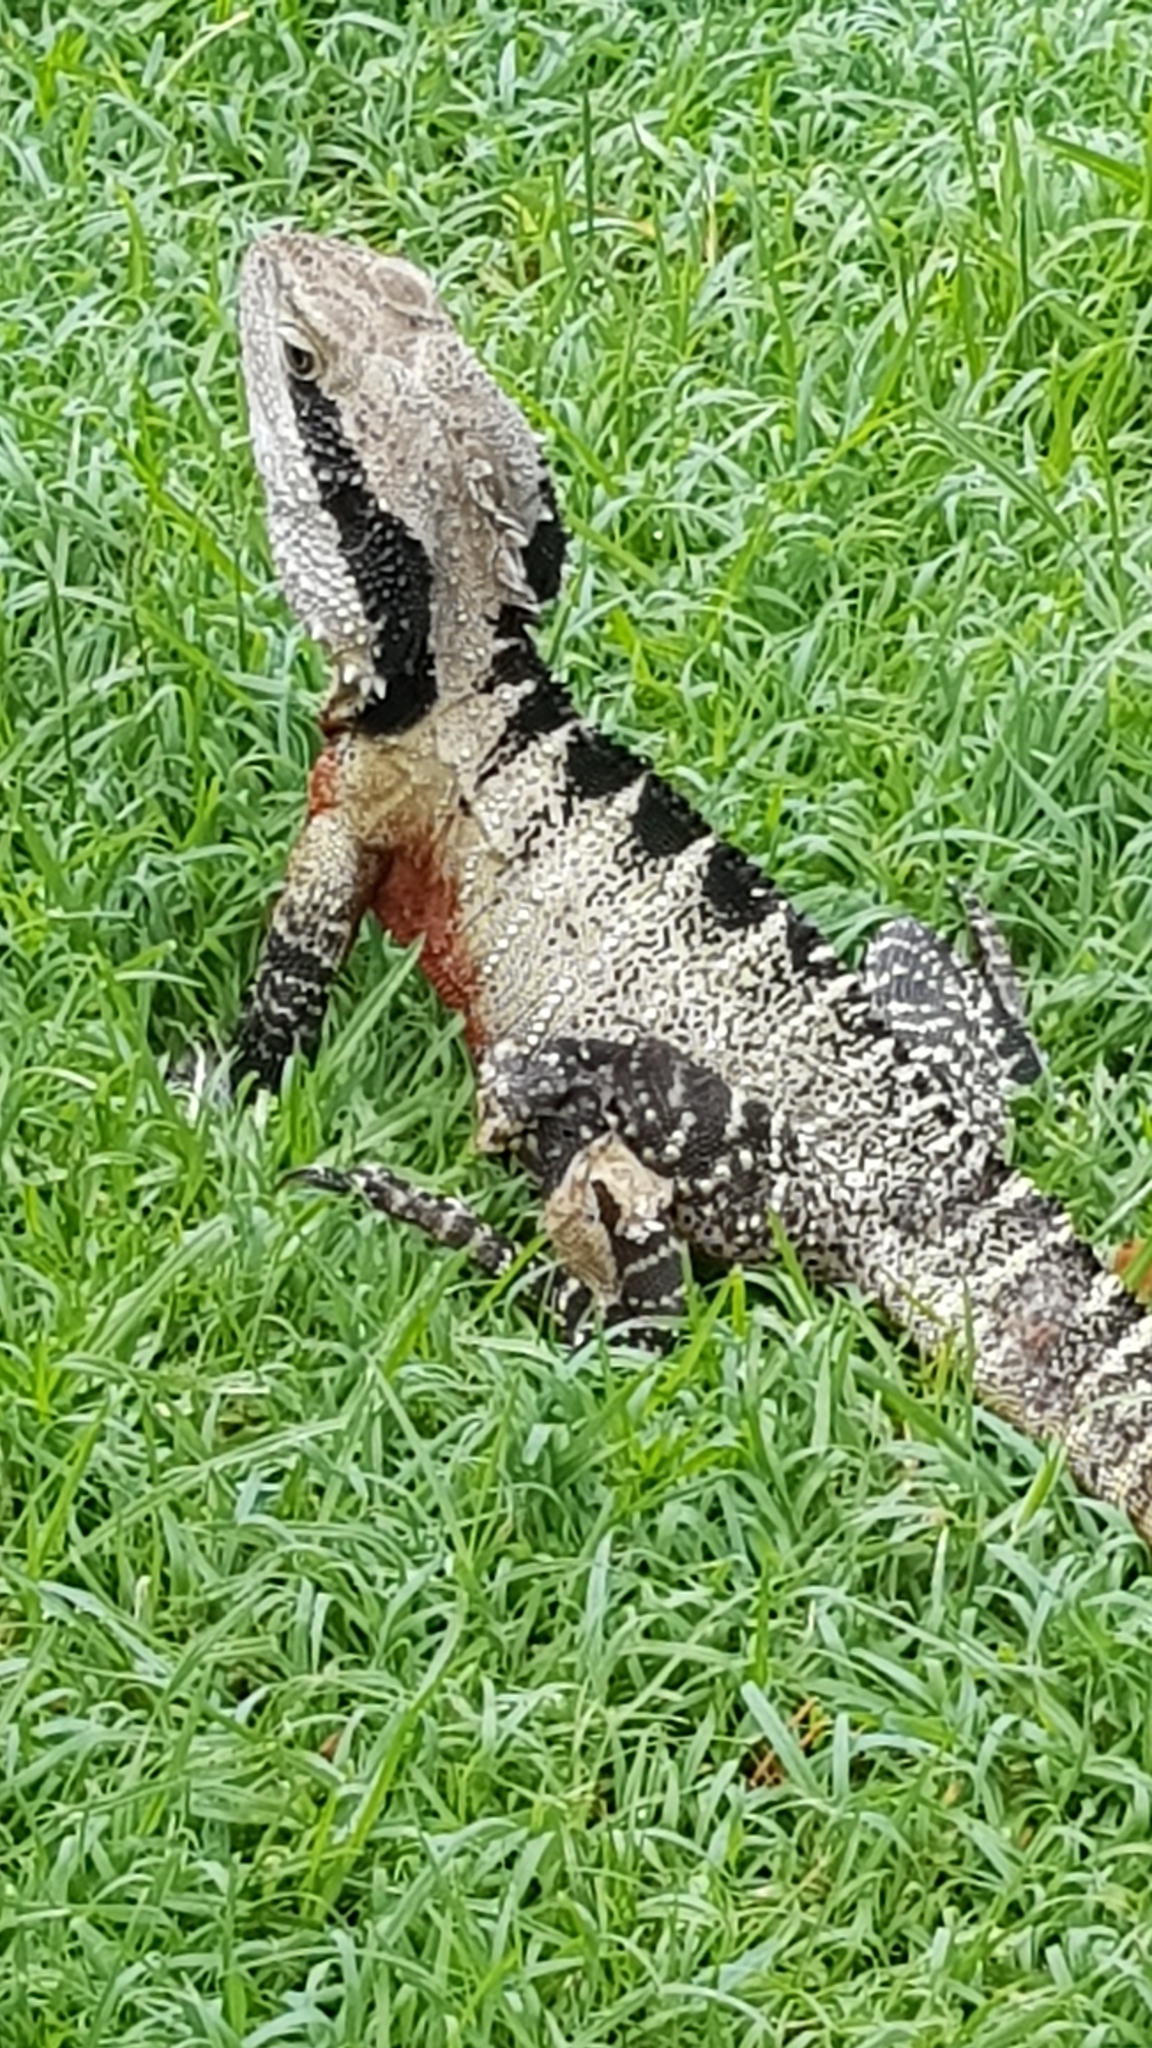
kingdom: Animalia
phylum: Chordata
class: Squamata
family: Agamidae
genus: Intellagama
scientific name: Intellagama lesueurii
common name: Eastern water dragon
